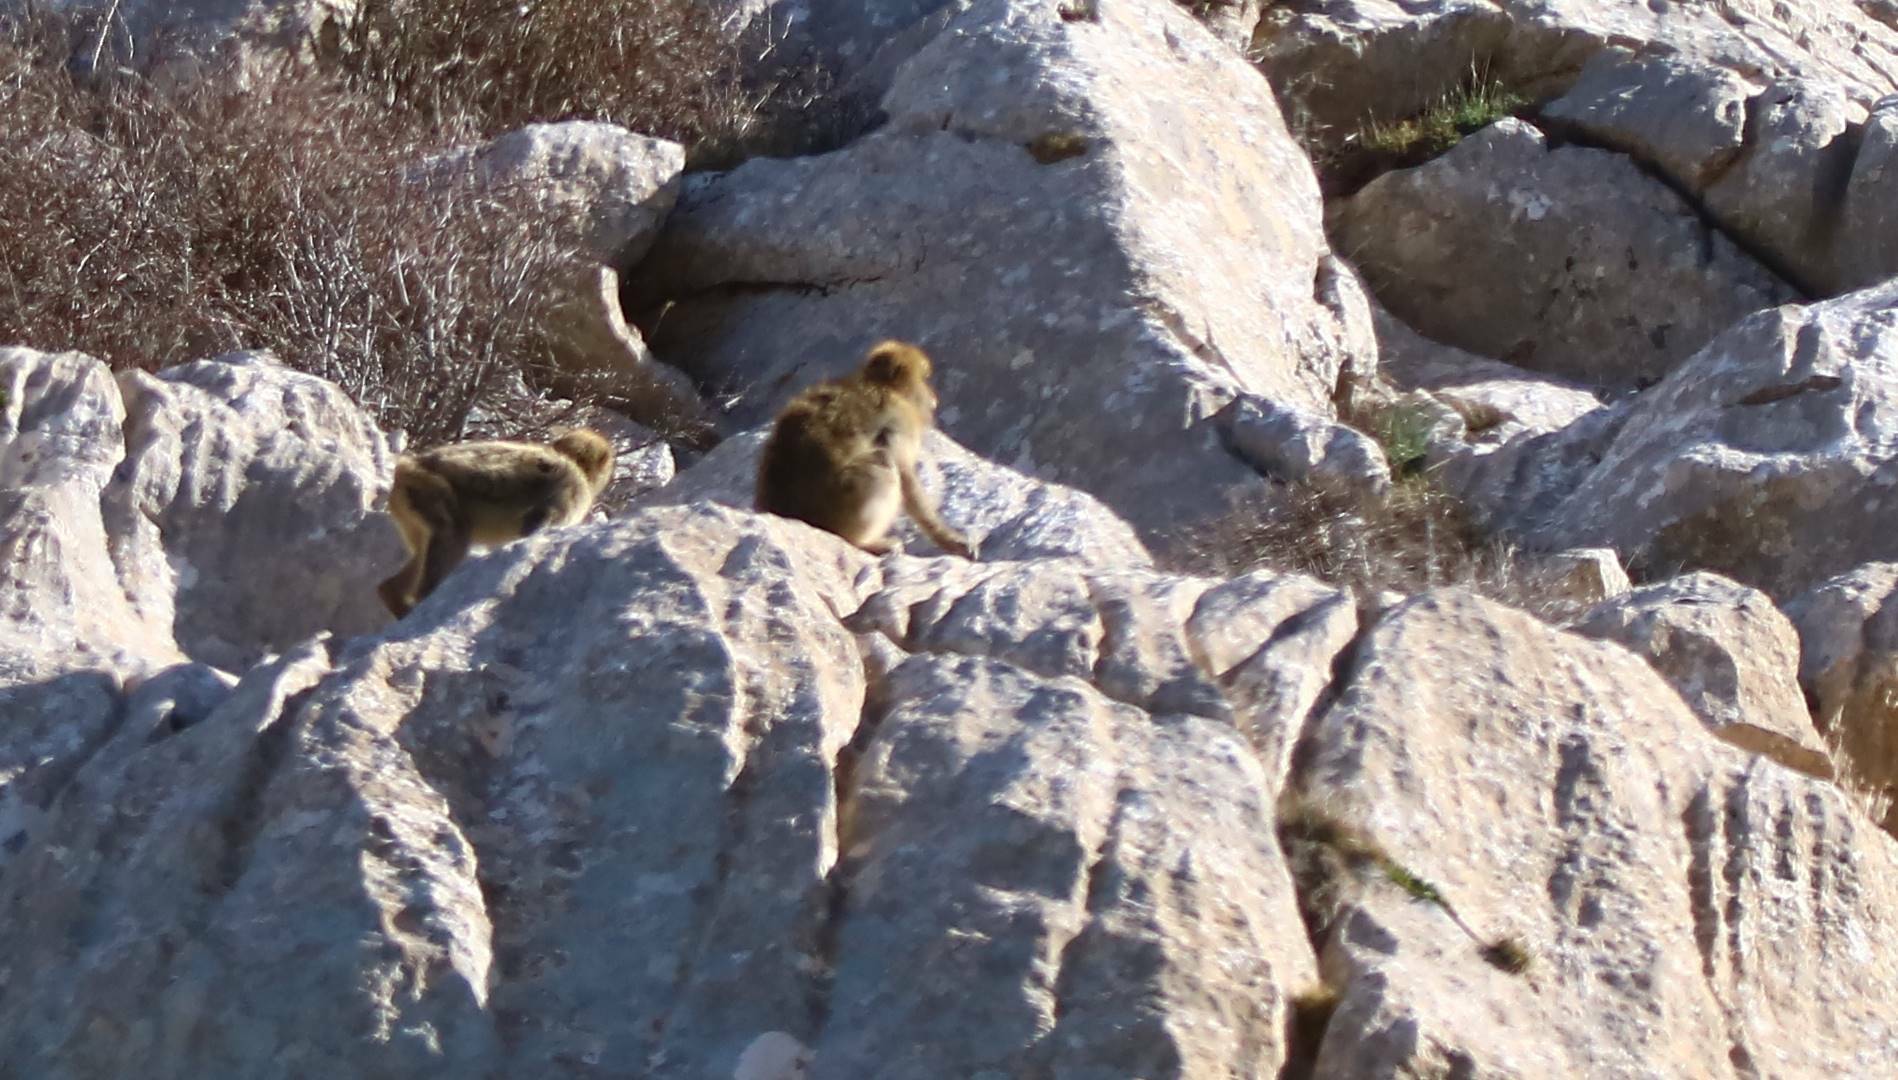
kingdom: Animalia
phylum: Chordata
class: Mammalia
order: Primates
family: Cercopithecidae
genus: Macaca
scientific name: Macaca sylvanus
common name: Barbary macaque
